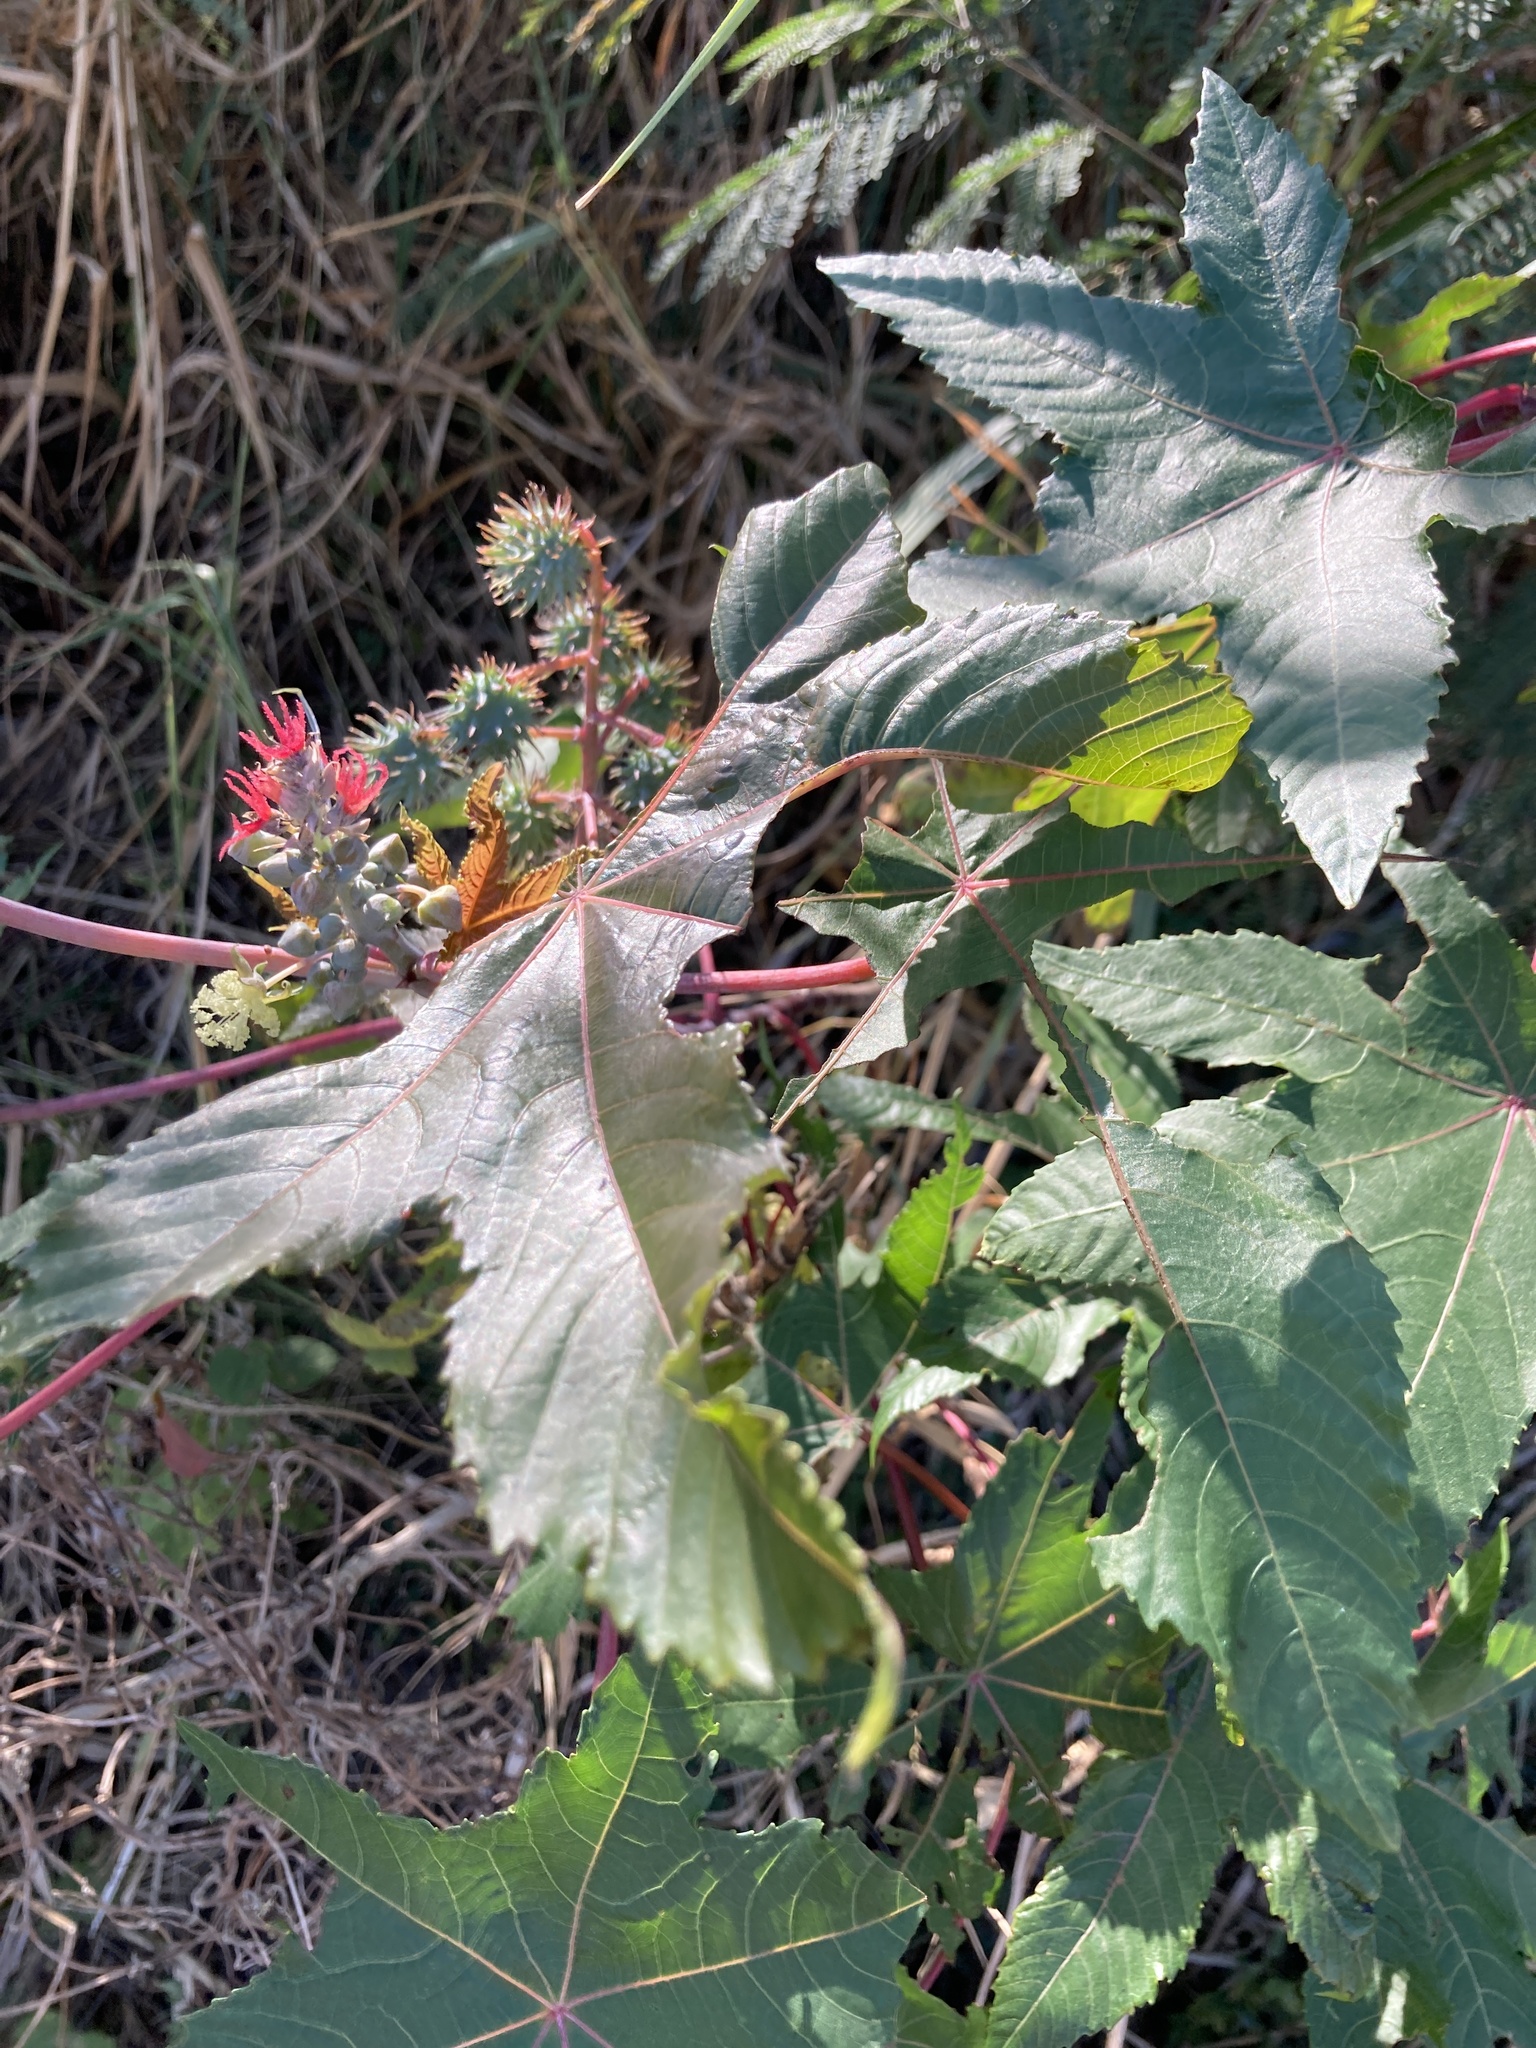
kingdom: Plantae
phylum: Tracheophyta
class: Magnoliopsida
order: Malpighiales
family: Euphorbiaceae
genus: Ricinus
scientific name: Ricinus communis
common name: Castor-oil-plant
